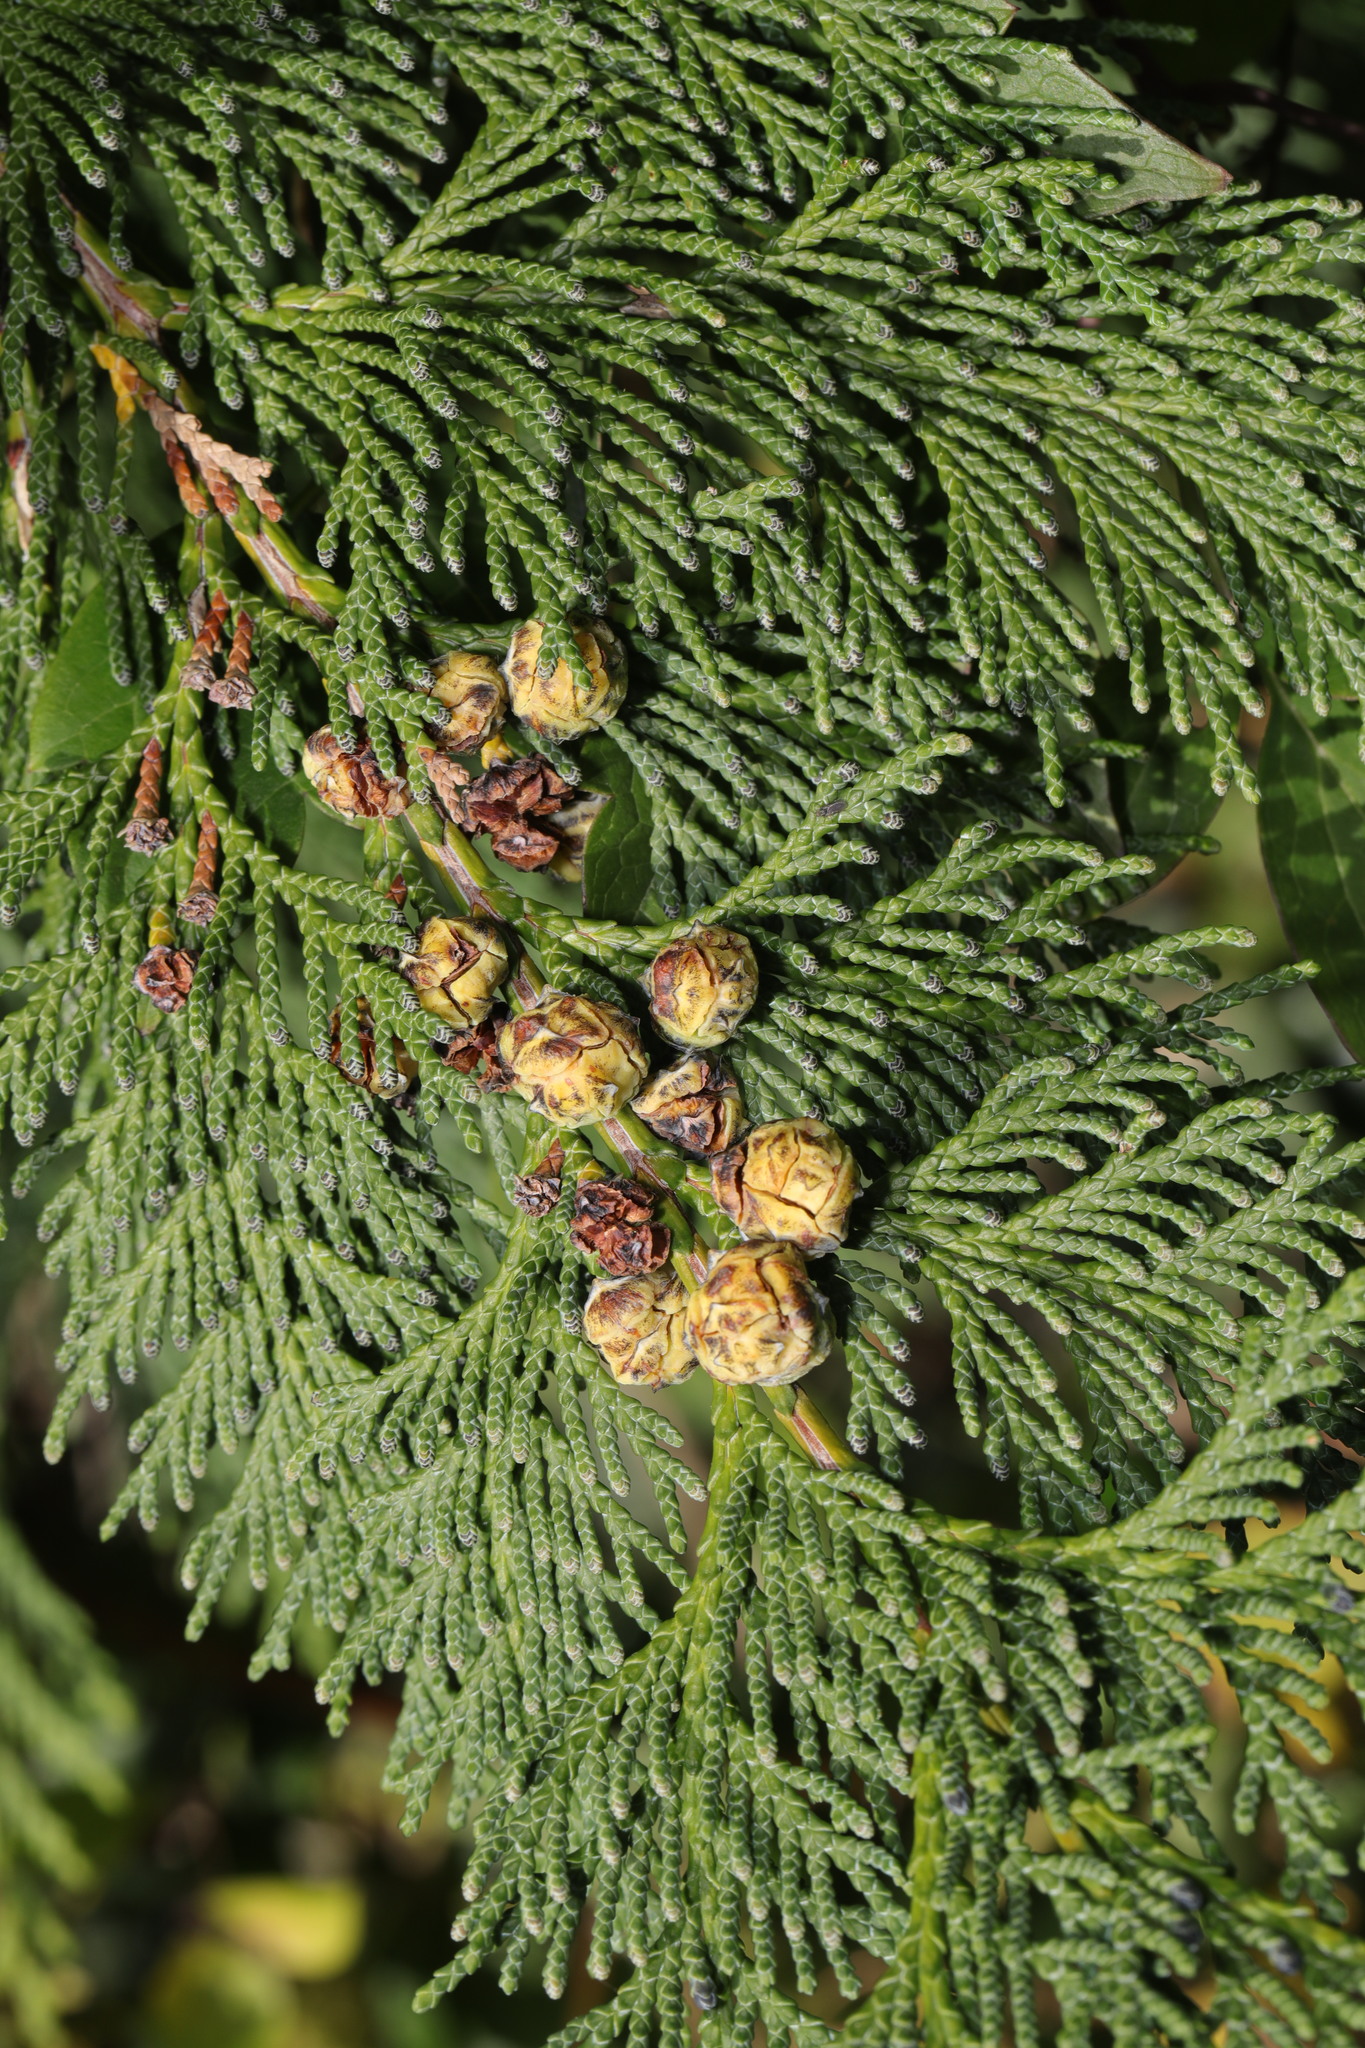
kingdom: Plantae
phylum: Tracheophyta
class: Pinopsida
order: Pinales
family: Cupressaceae
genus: Chamaecyparis
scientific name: Chamaecyparis lawsoniana
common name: Lawson's cypress
